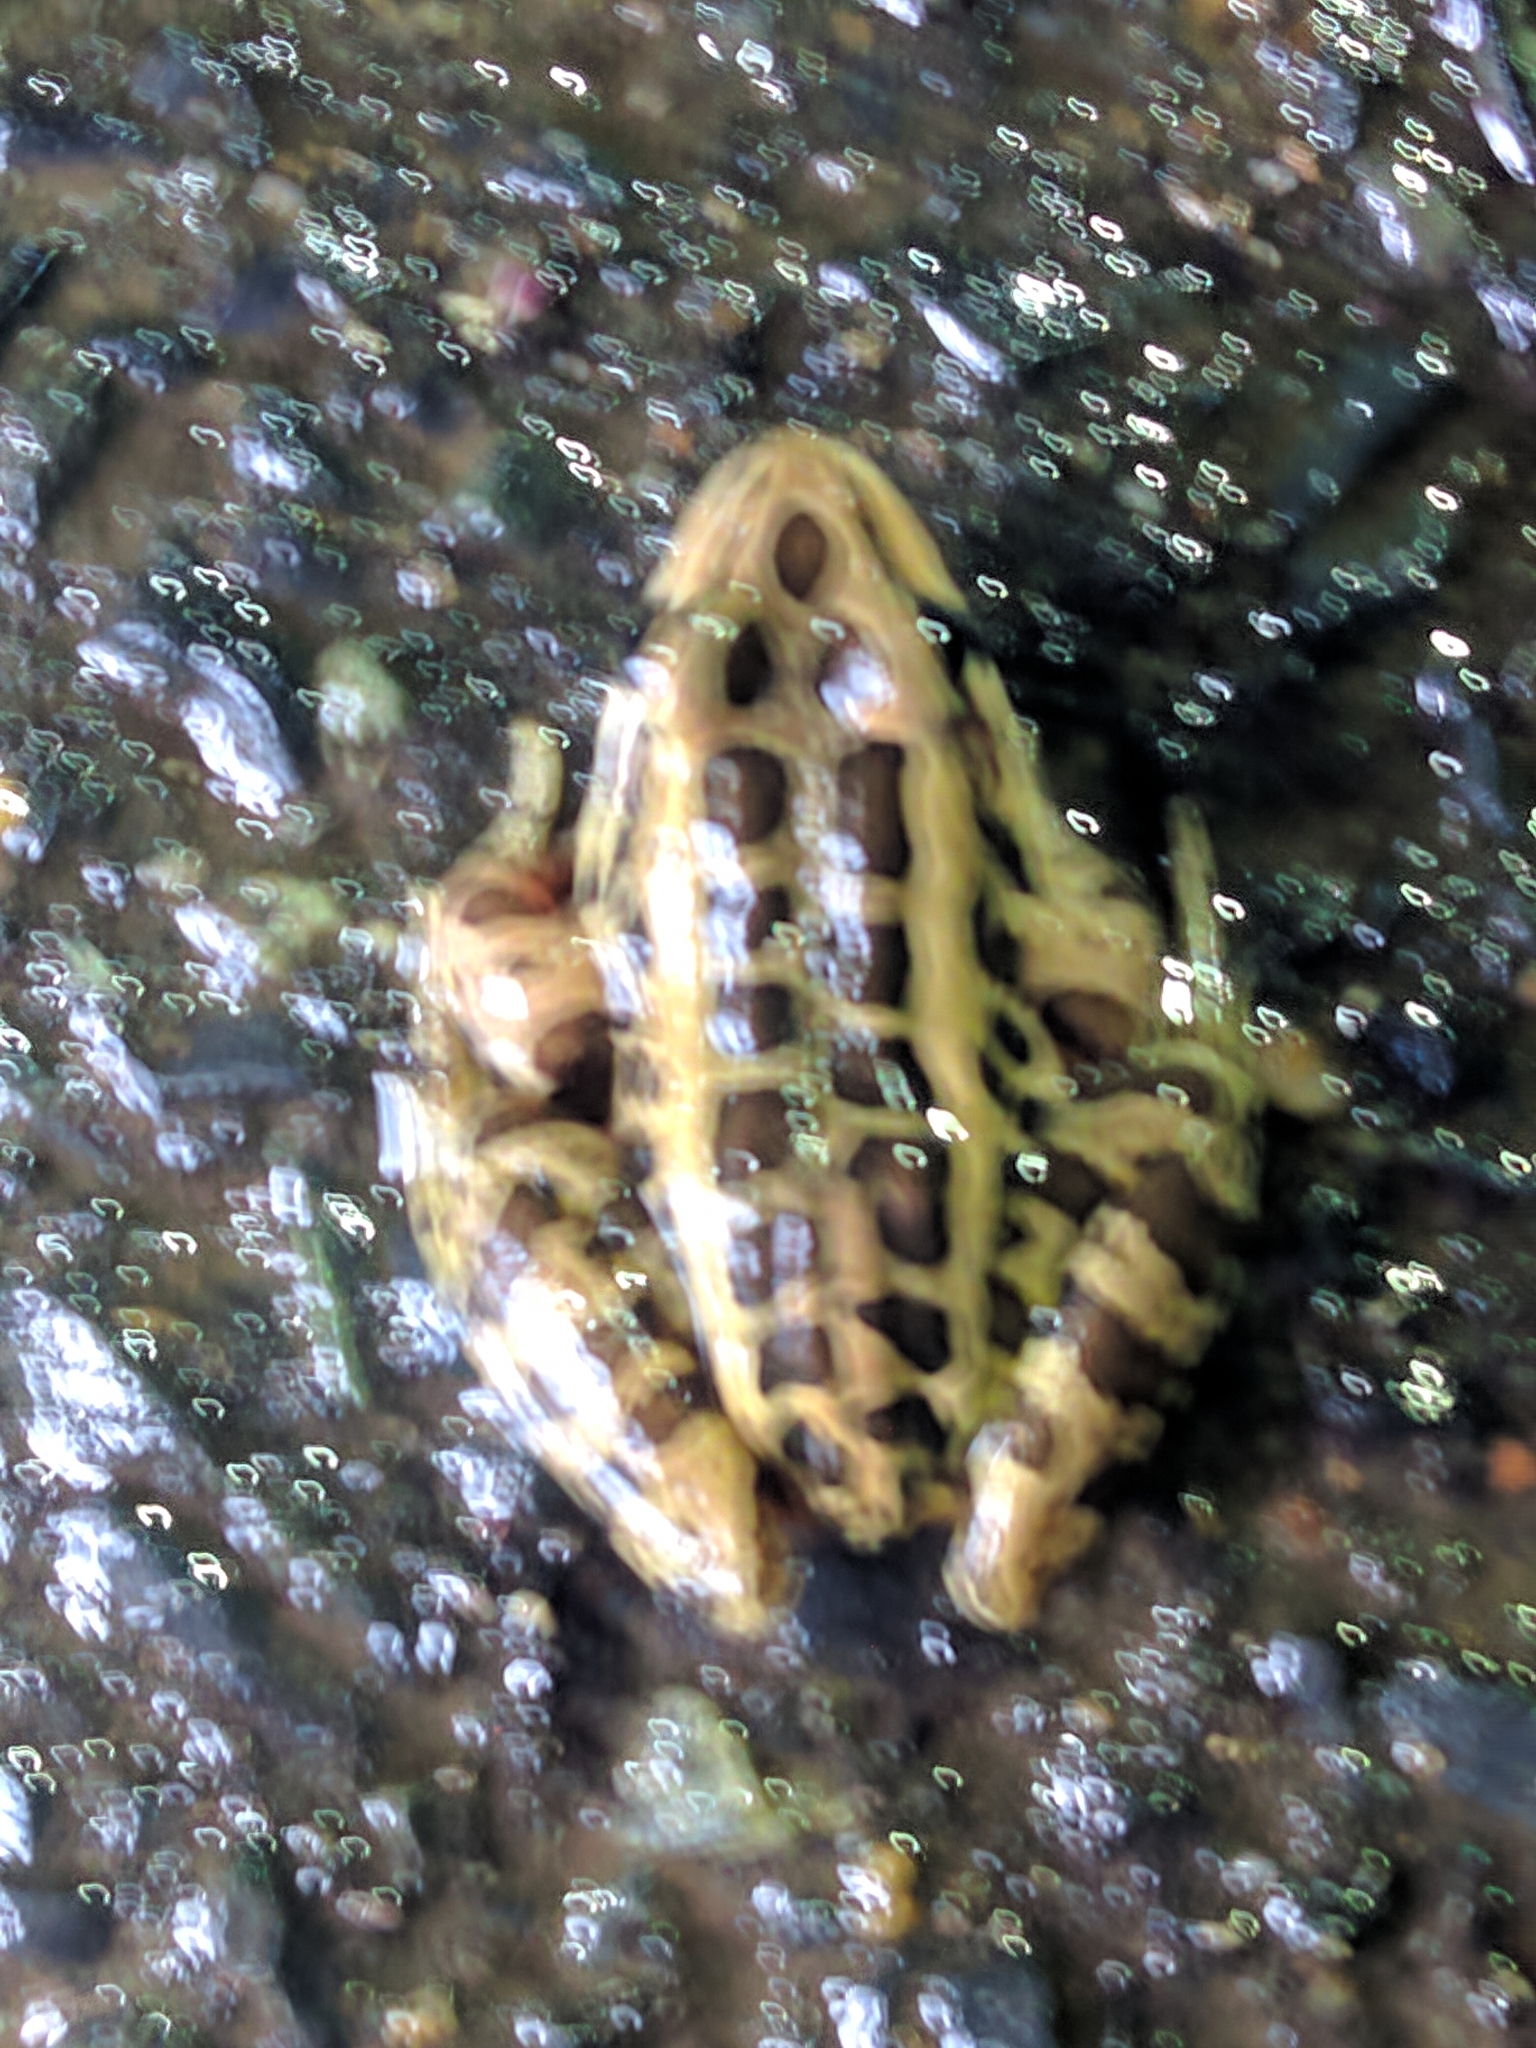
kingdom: Animalia
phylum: Chordata
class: Amphibia
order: Anura
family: Ranidae
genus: Lithobates
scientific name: Lithobates palustris
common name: Pickerel frog
